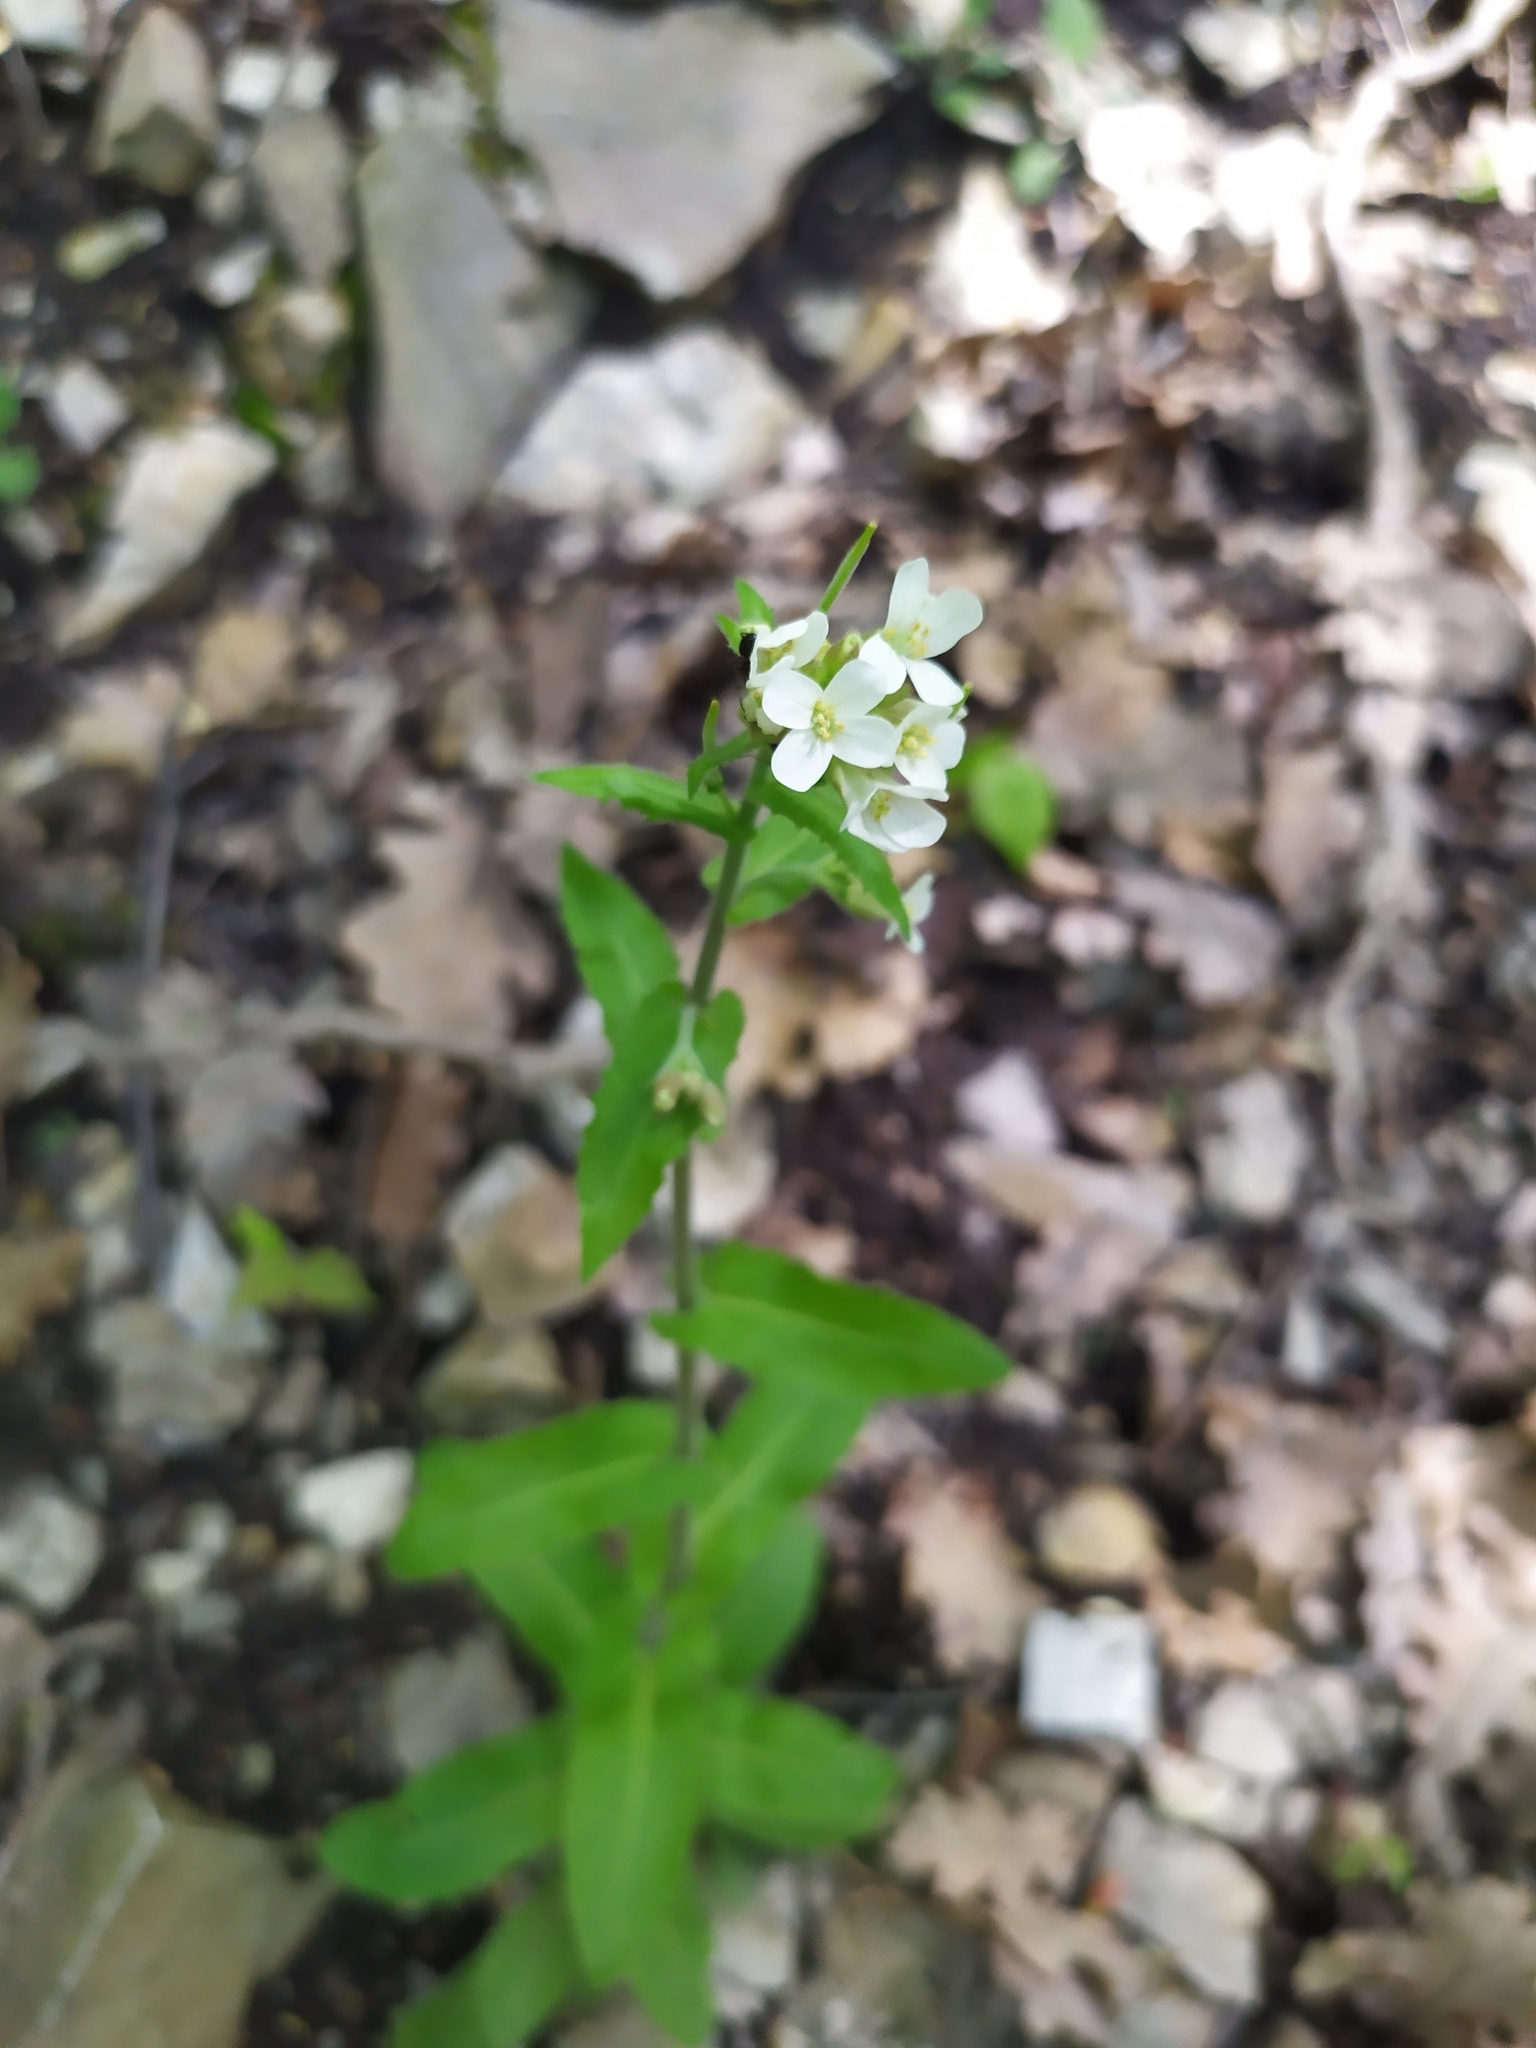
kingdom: Plantae
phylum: Tracheophyta
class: Magnoliopsida
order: Brassicales
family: Brassicaceae
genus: Pseudoturritis
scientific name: Pseudoturritis turrita
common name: Tower cress
